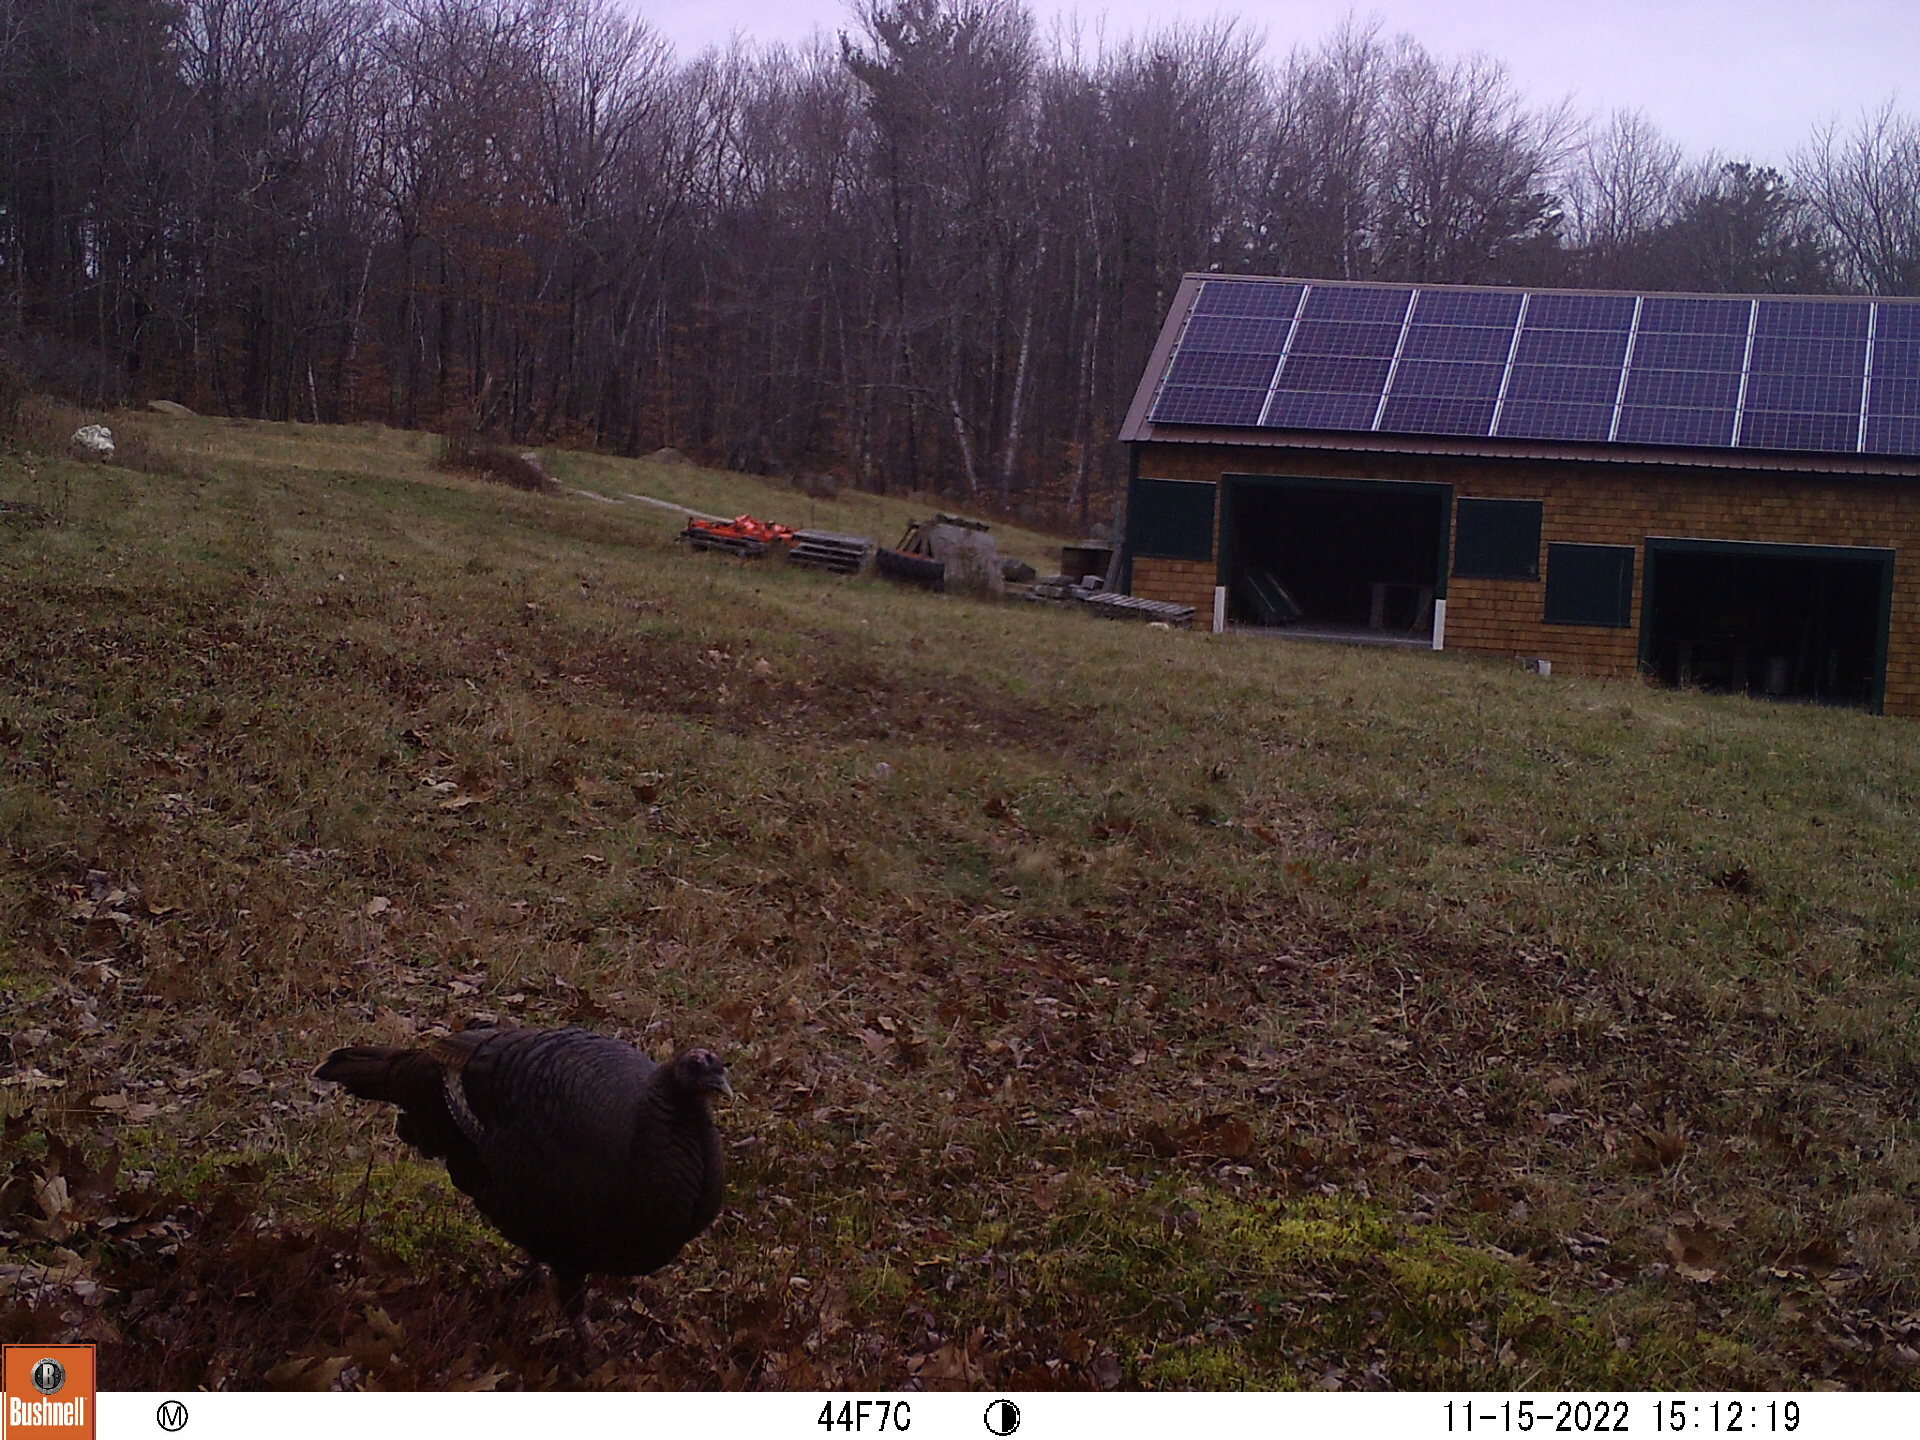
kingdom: Animalia
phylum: Chordata
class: Aves
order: Galliformes
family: Phasianidae
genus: Meleagris
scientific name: Meleagris gallopavo
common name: Wild turkey
